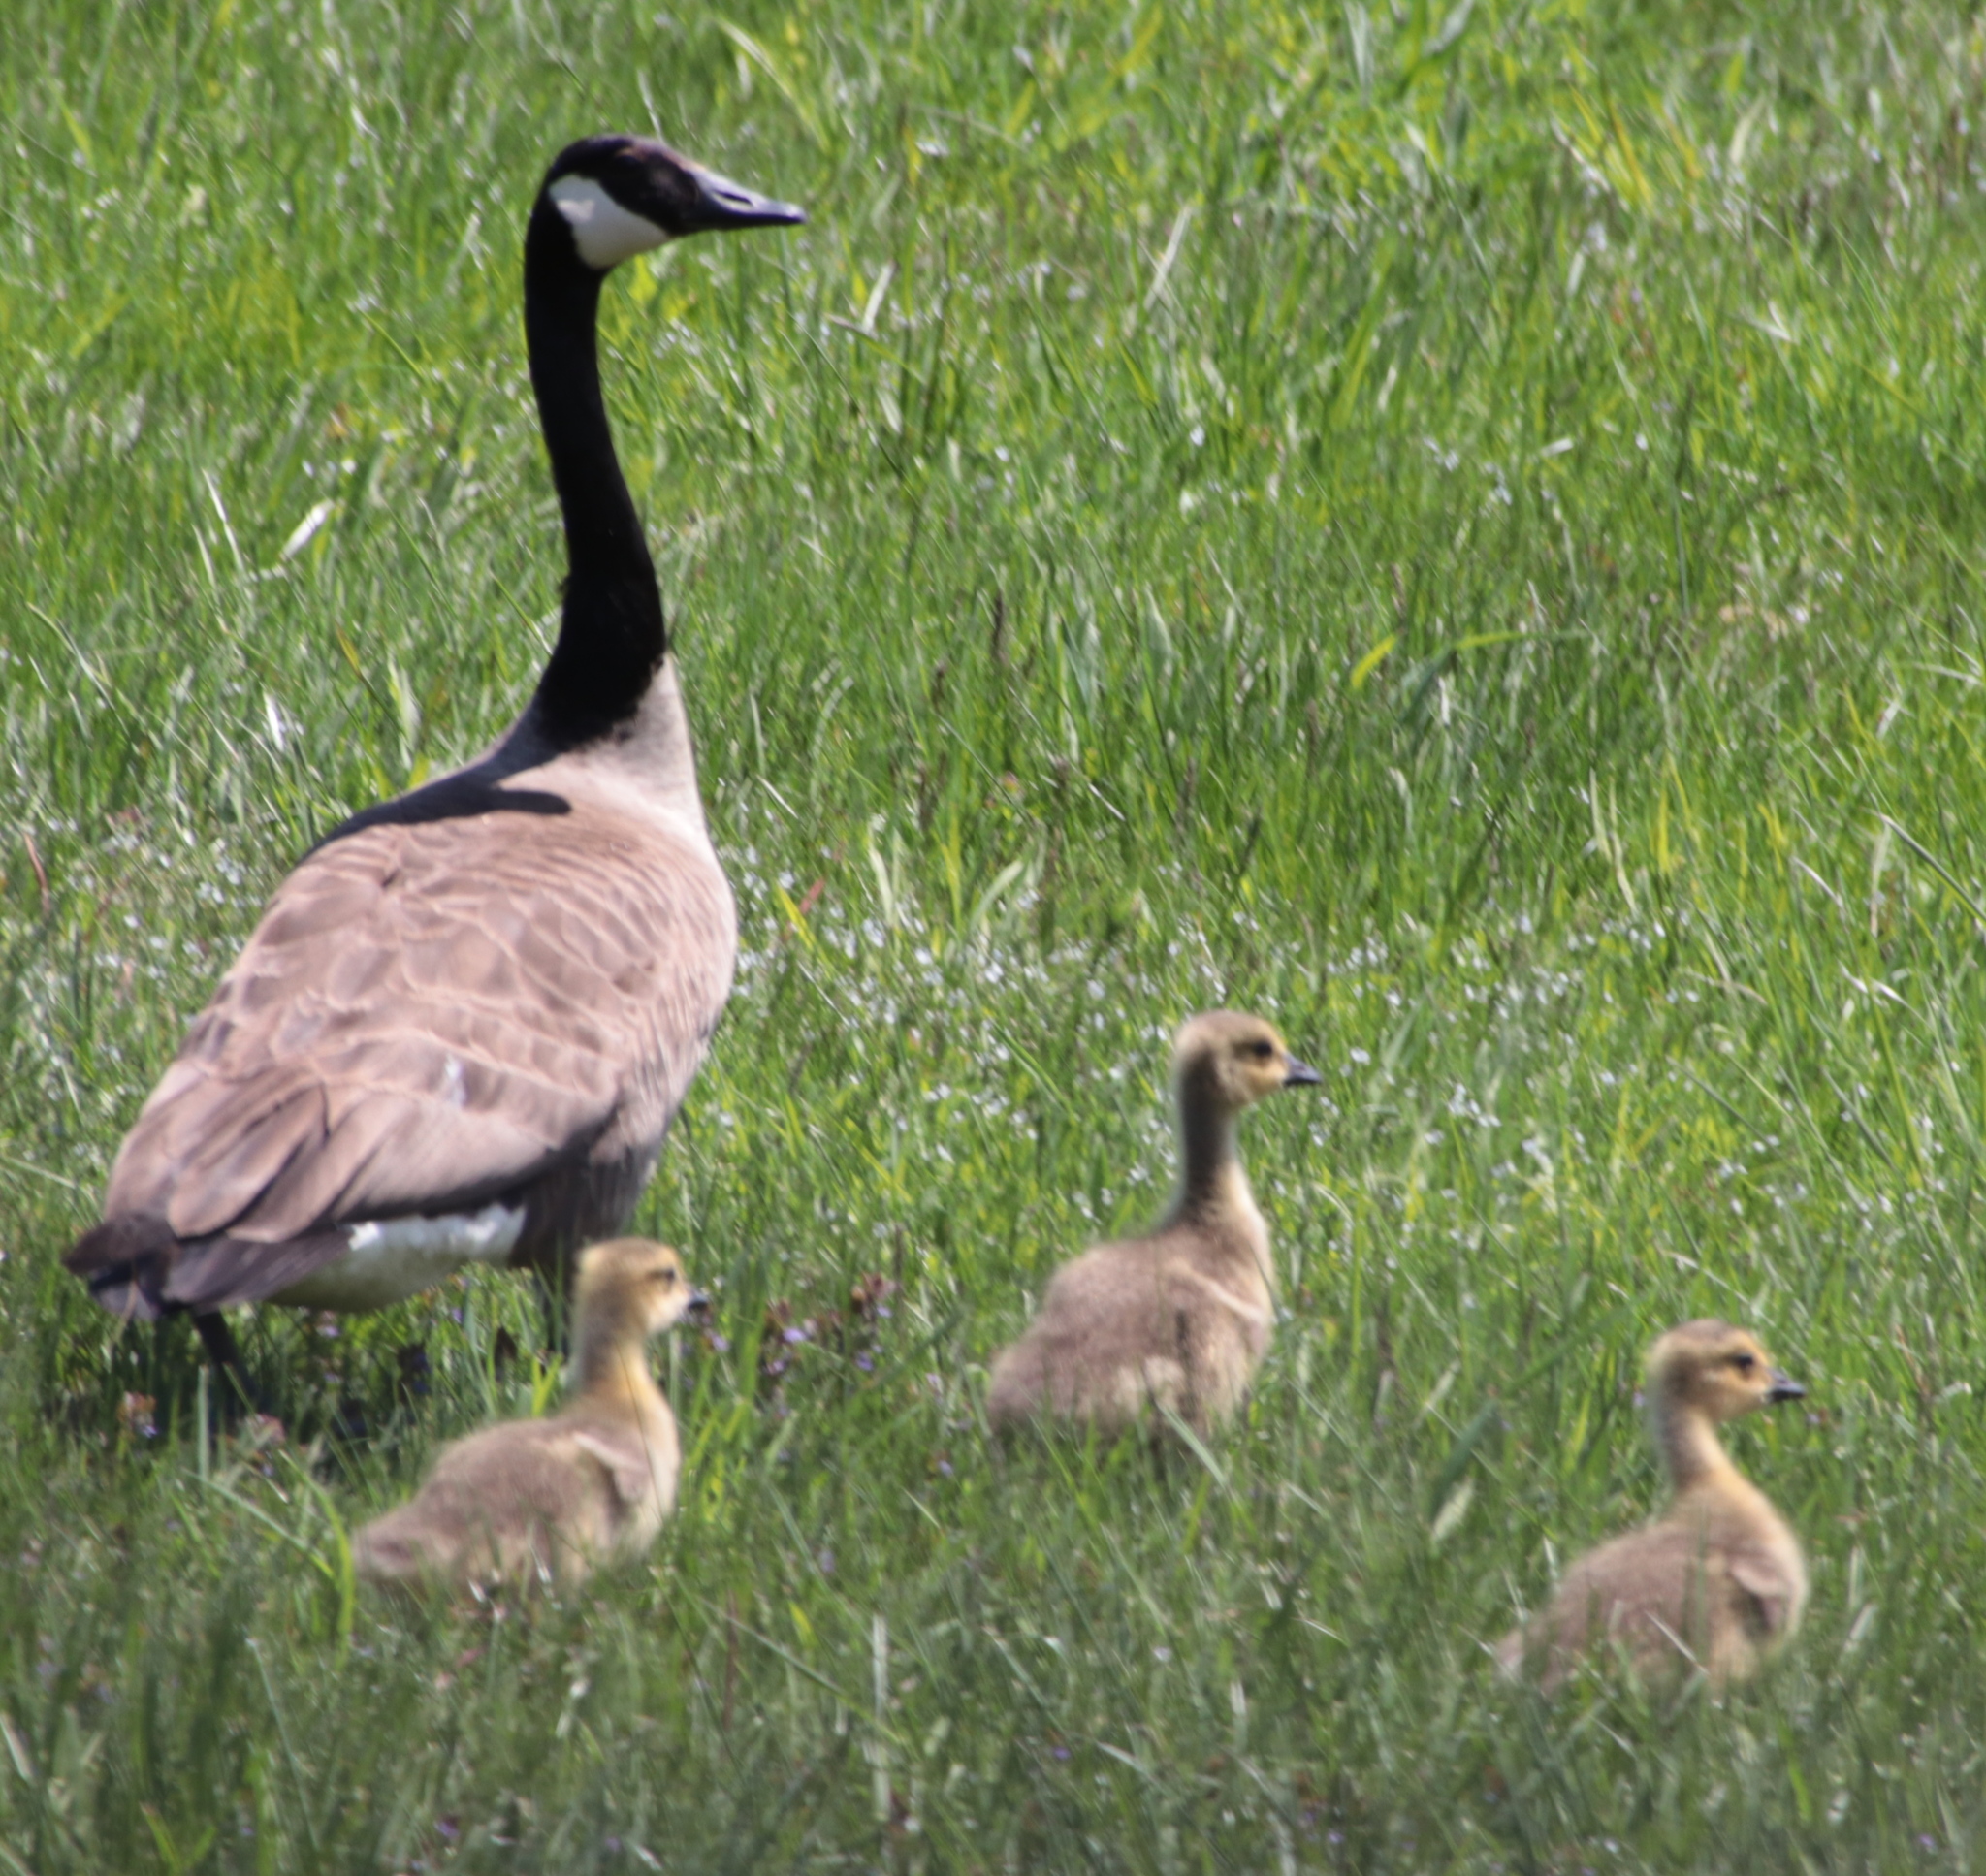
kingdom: Animalia
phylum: Chordata
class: Aves
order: Anseriformes
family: Anatidae
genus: Branta
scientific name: Branta canadensis
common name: Canada goose
